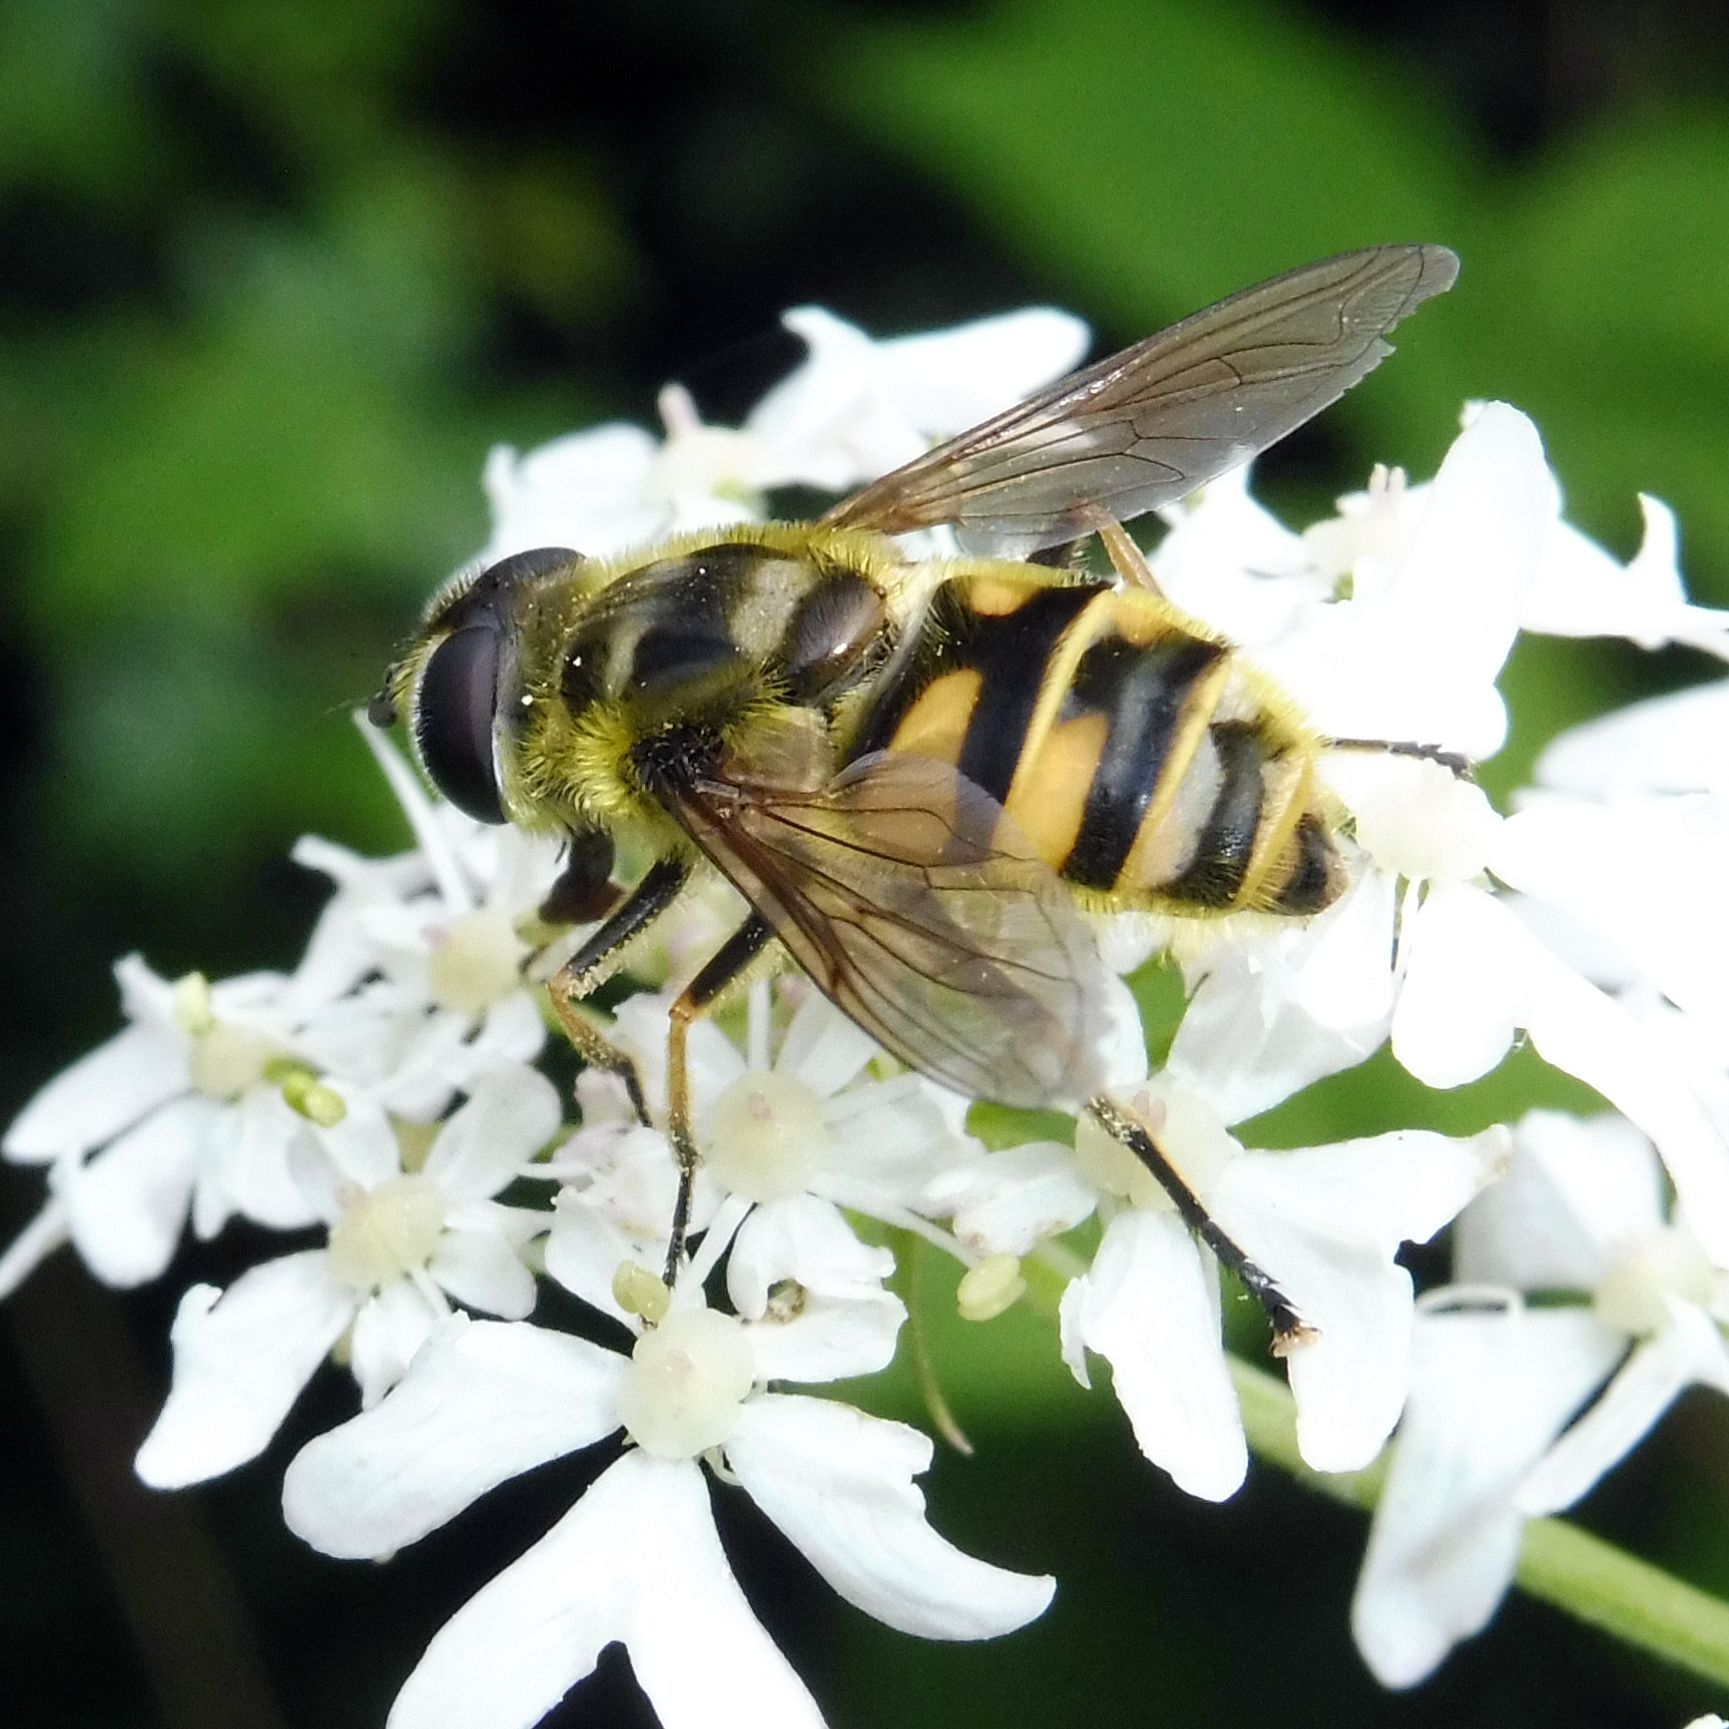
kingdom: Animalia
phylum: Arthropoda
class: Insecta
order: Diptera
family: Syrphidae
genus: Myathropa
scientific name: Myathropa florea
